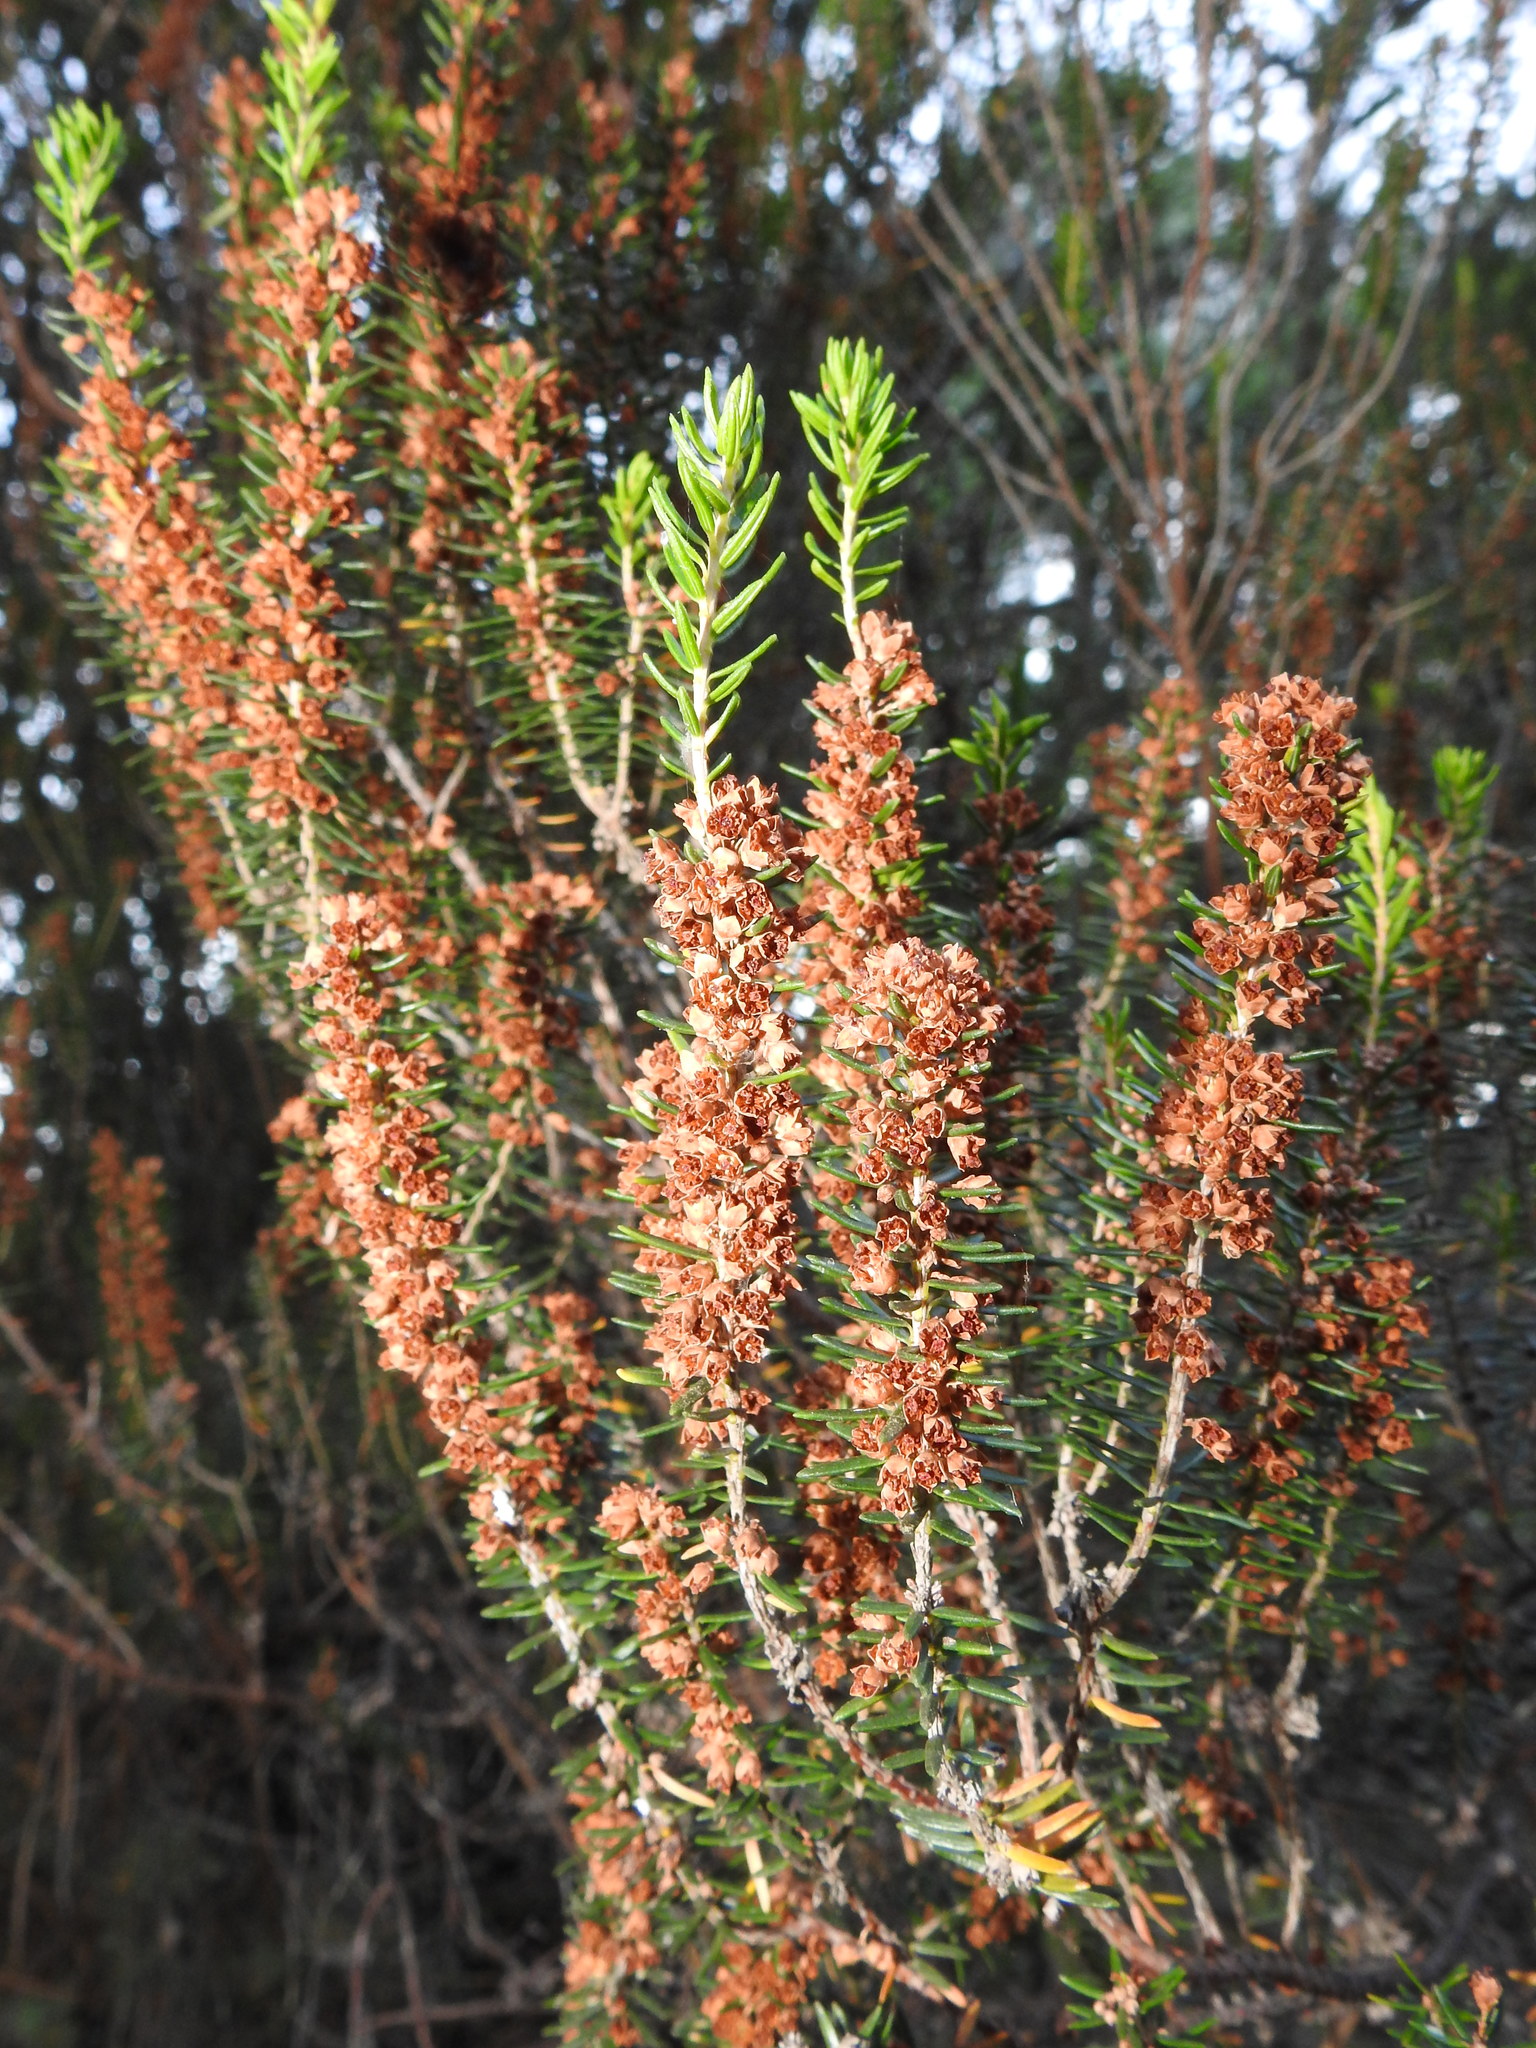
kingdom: Plantae
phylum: Tracheophyta
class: Magnoliopsida
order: Ericales
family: Ericaceae
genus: Erica
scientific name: Erica scoparia
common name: Green heather
